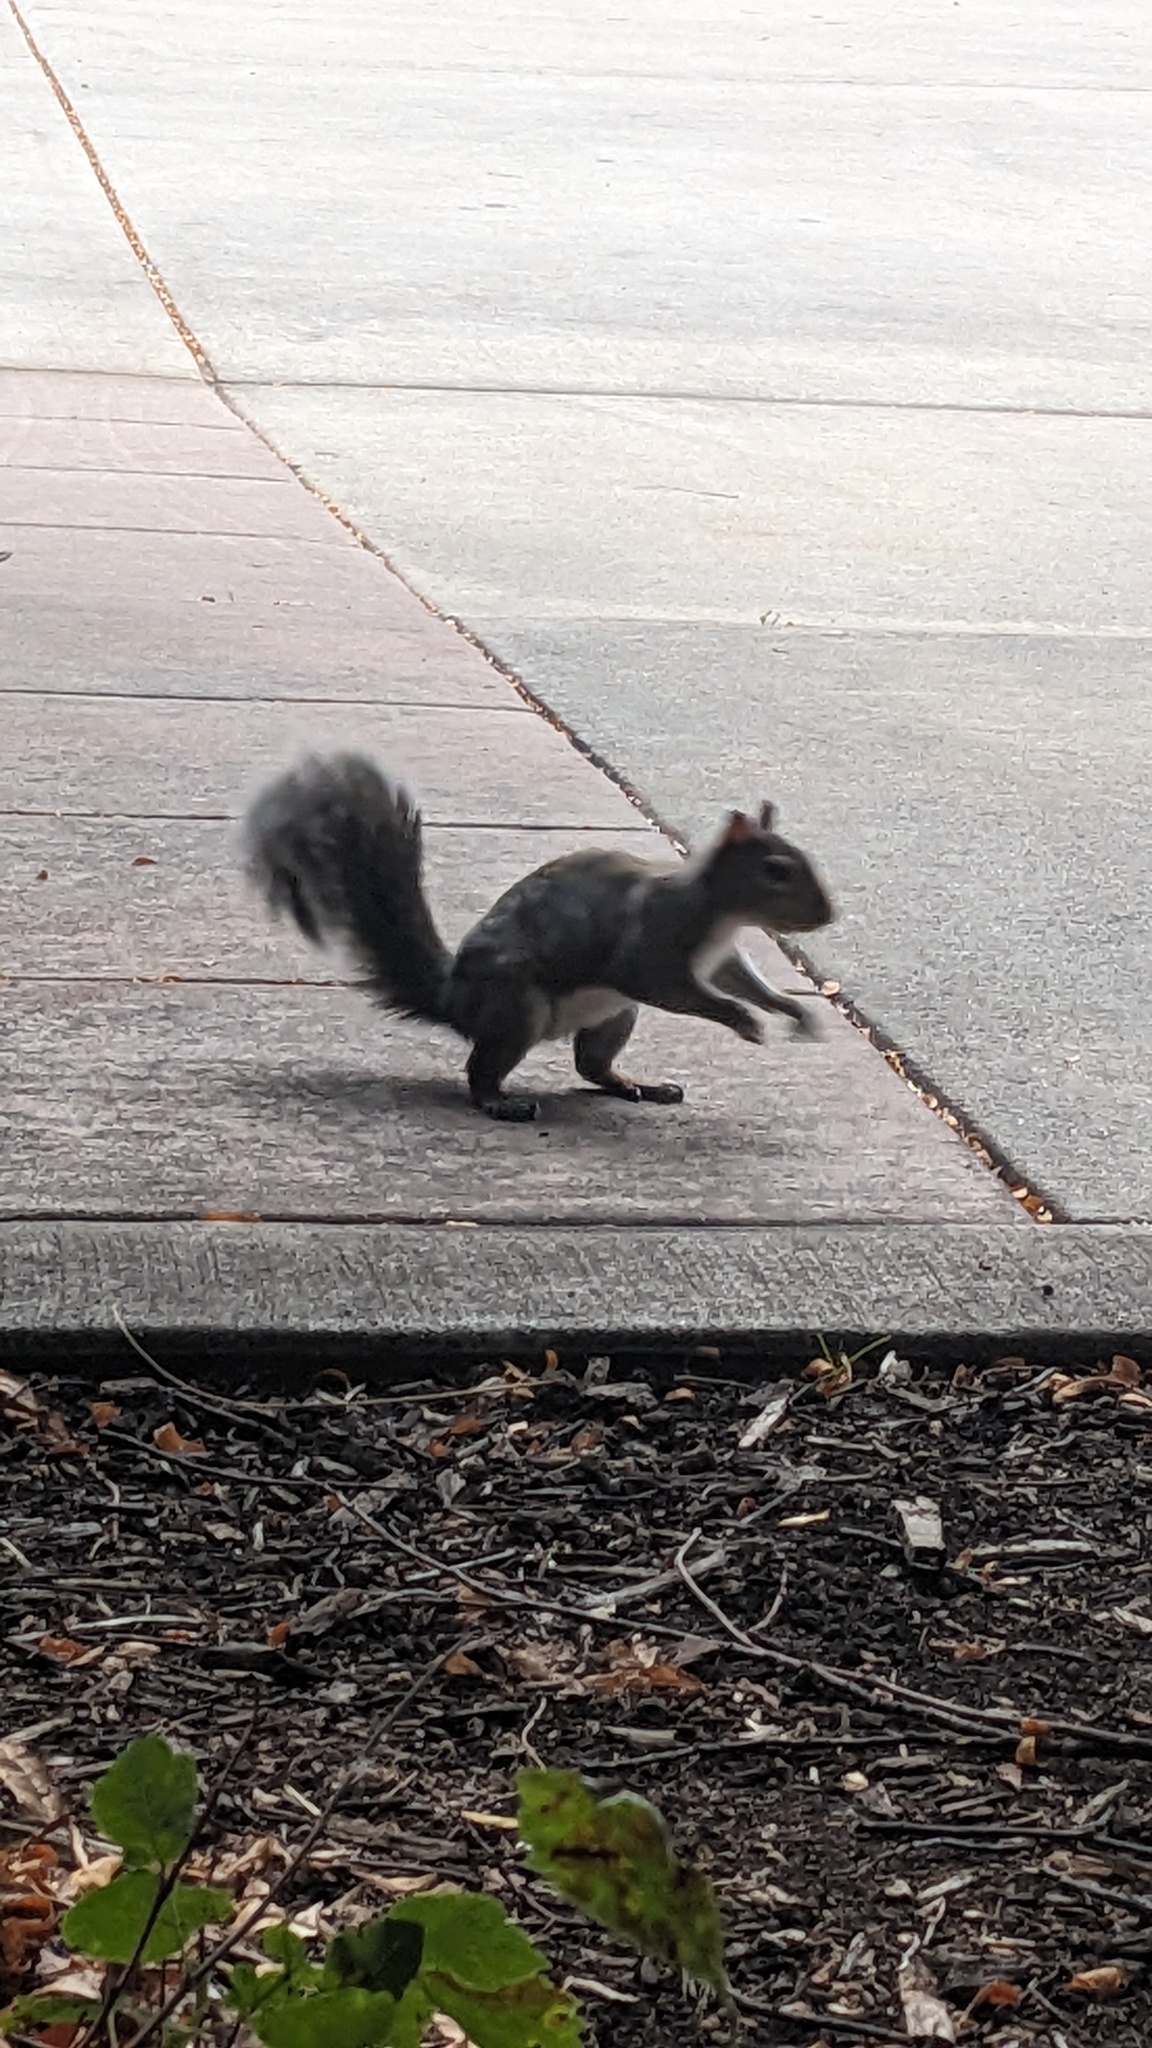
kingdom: Animalia
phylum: Chordata
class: Mammalia
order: Rodentia
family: Sciuridae
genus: Sciurus
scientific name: Sciurus carolinensis
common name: Eastern gray squirrel
